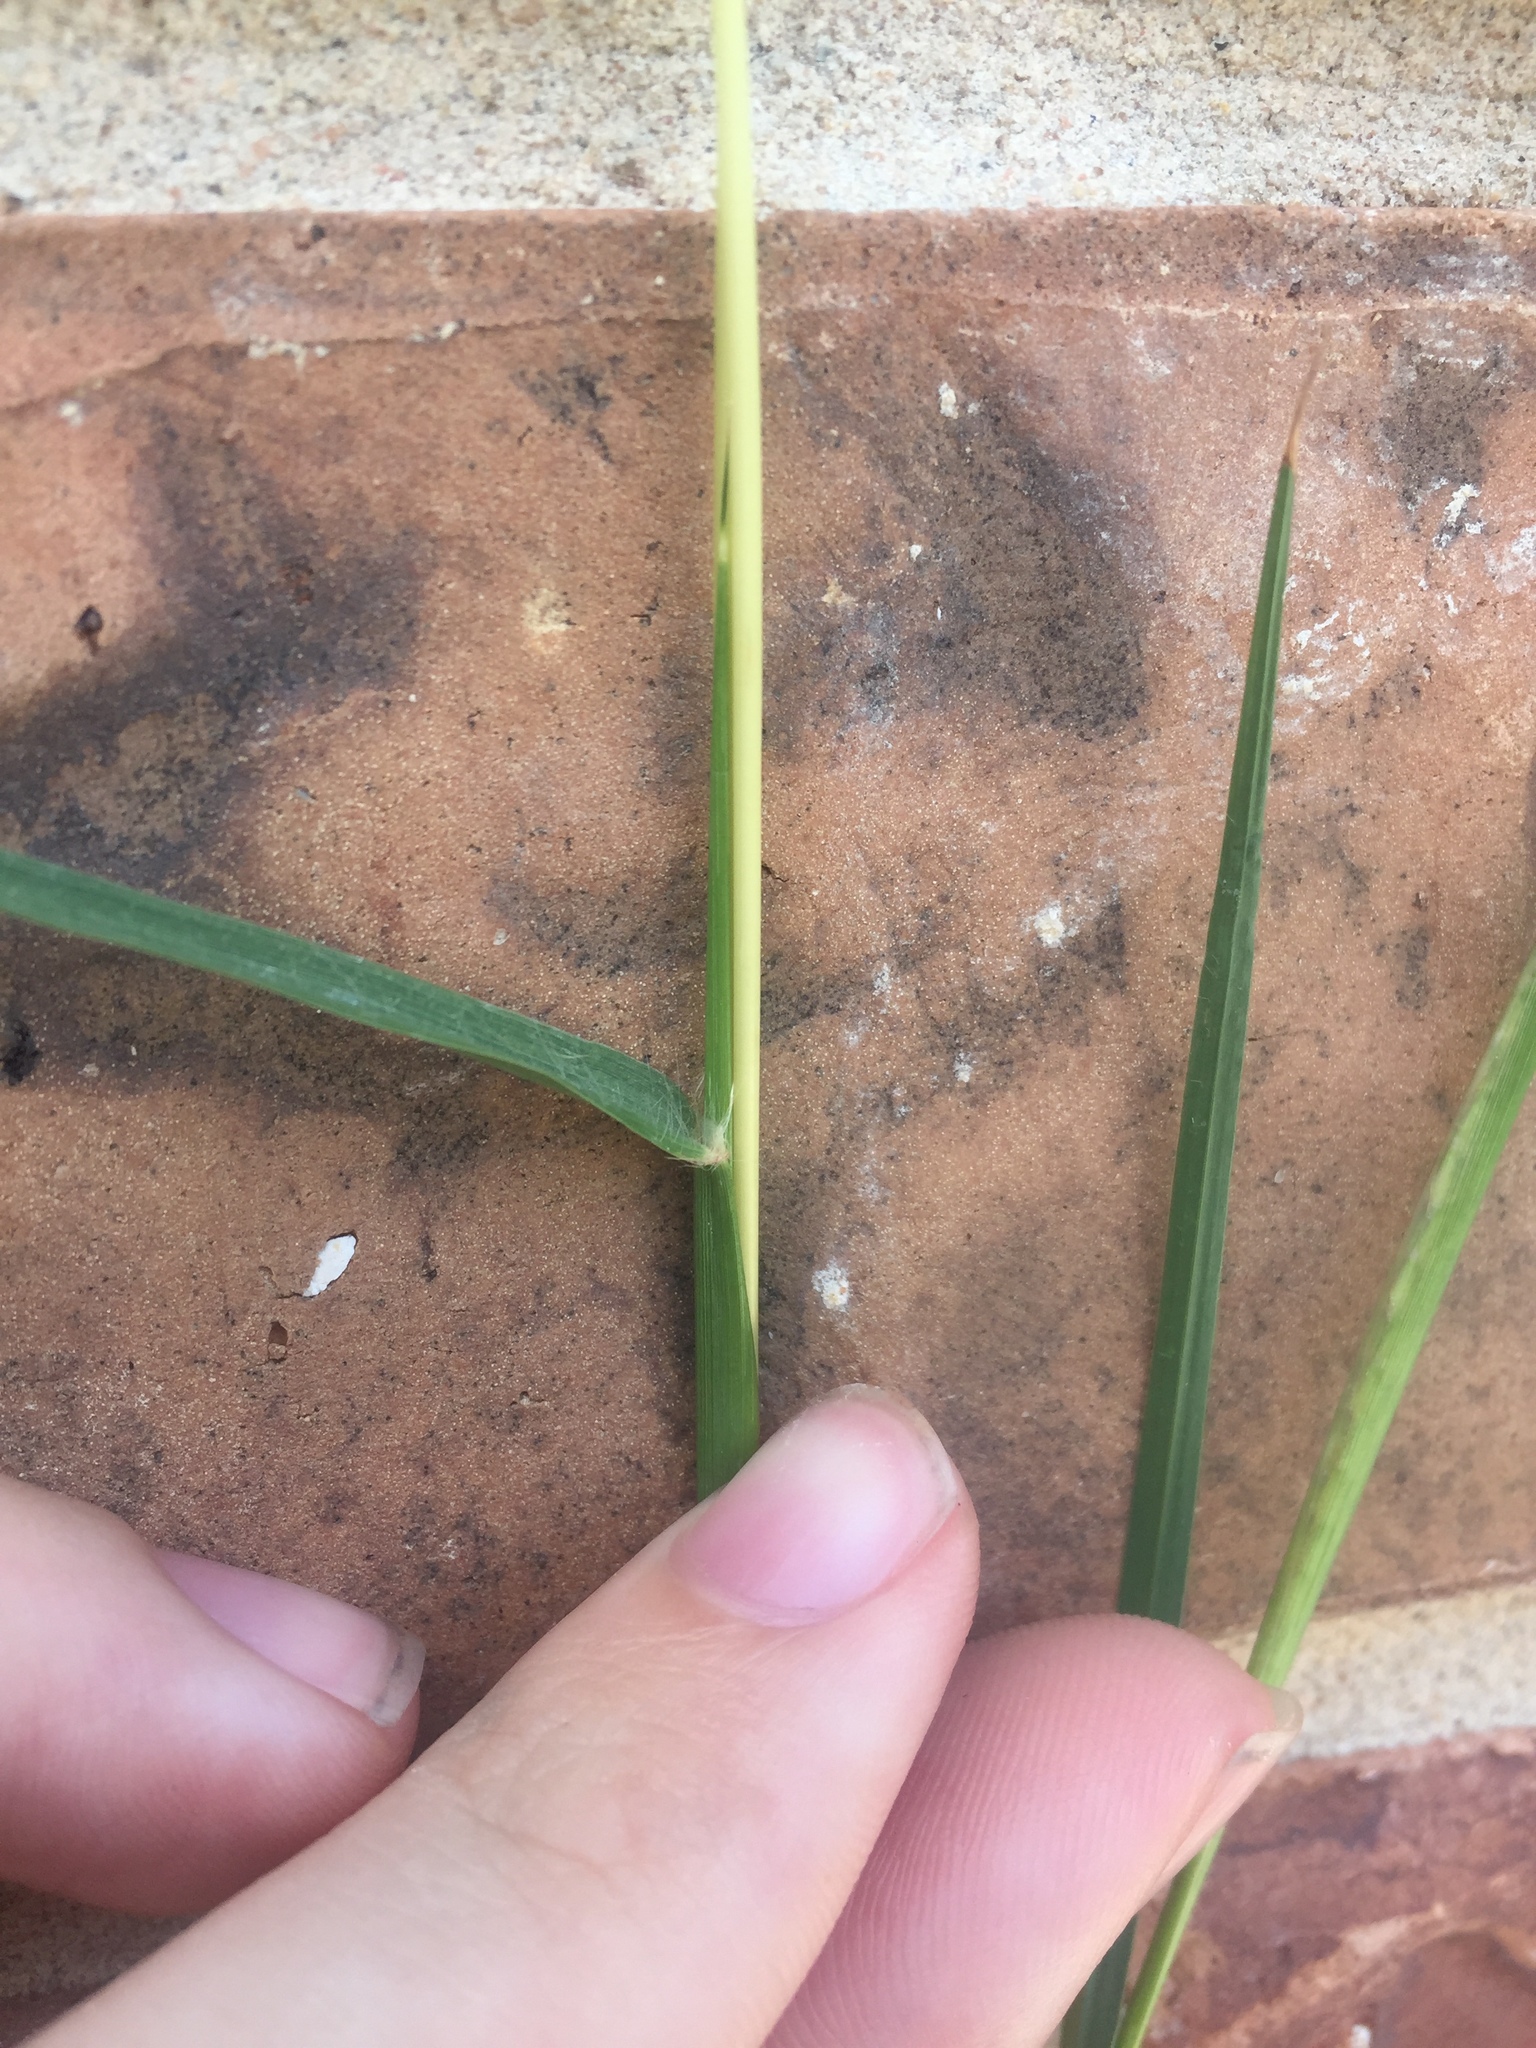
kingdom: Plantae
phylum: Tracheophyta
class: Liliopsida
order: Poales
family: Poaceae
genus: Bothriochloa
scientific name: Bothriochloa ischaemum
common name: Yellow bluestem
